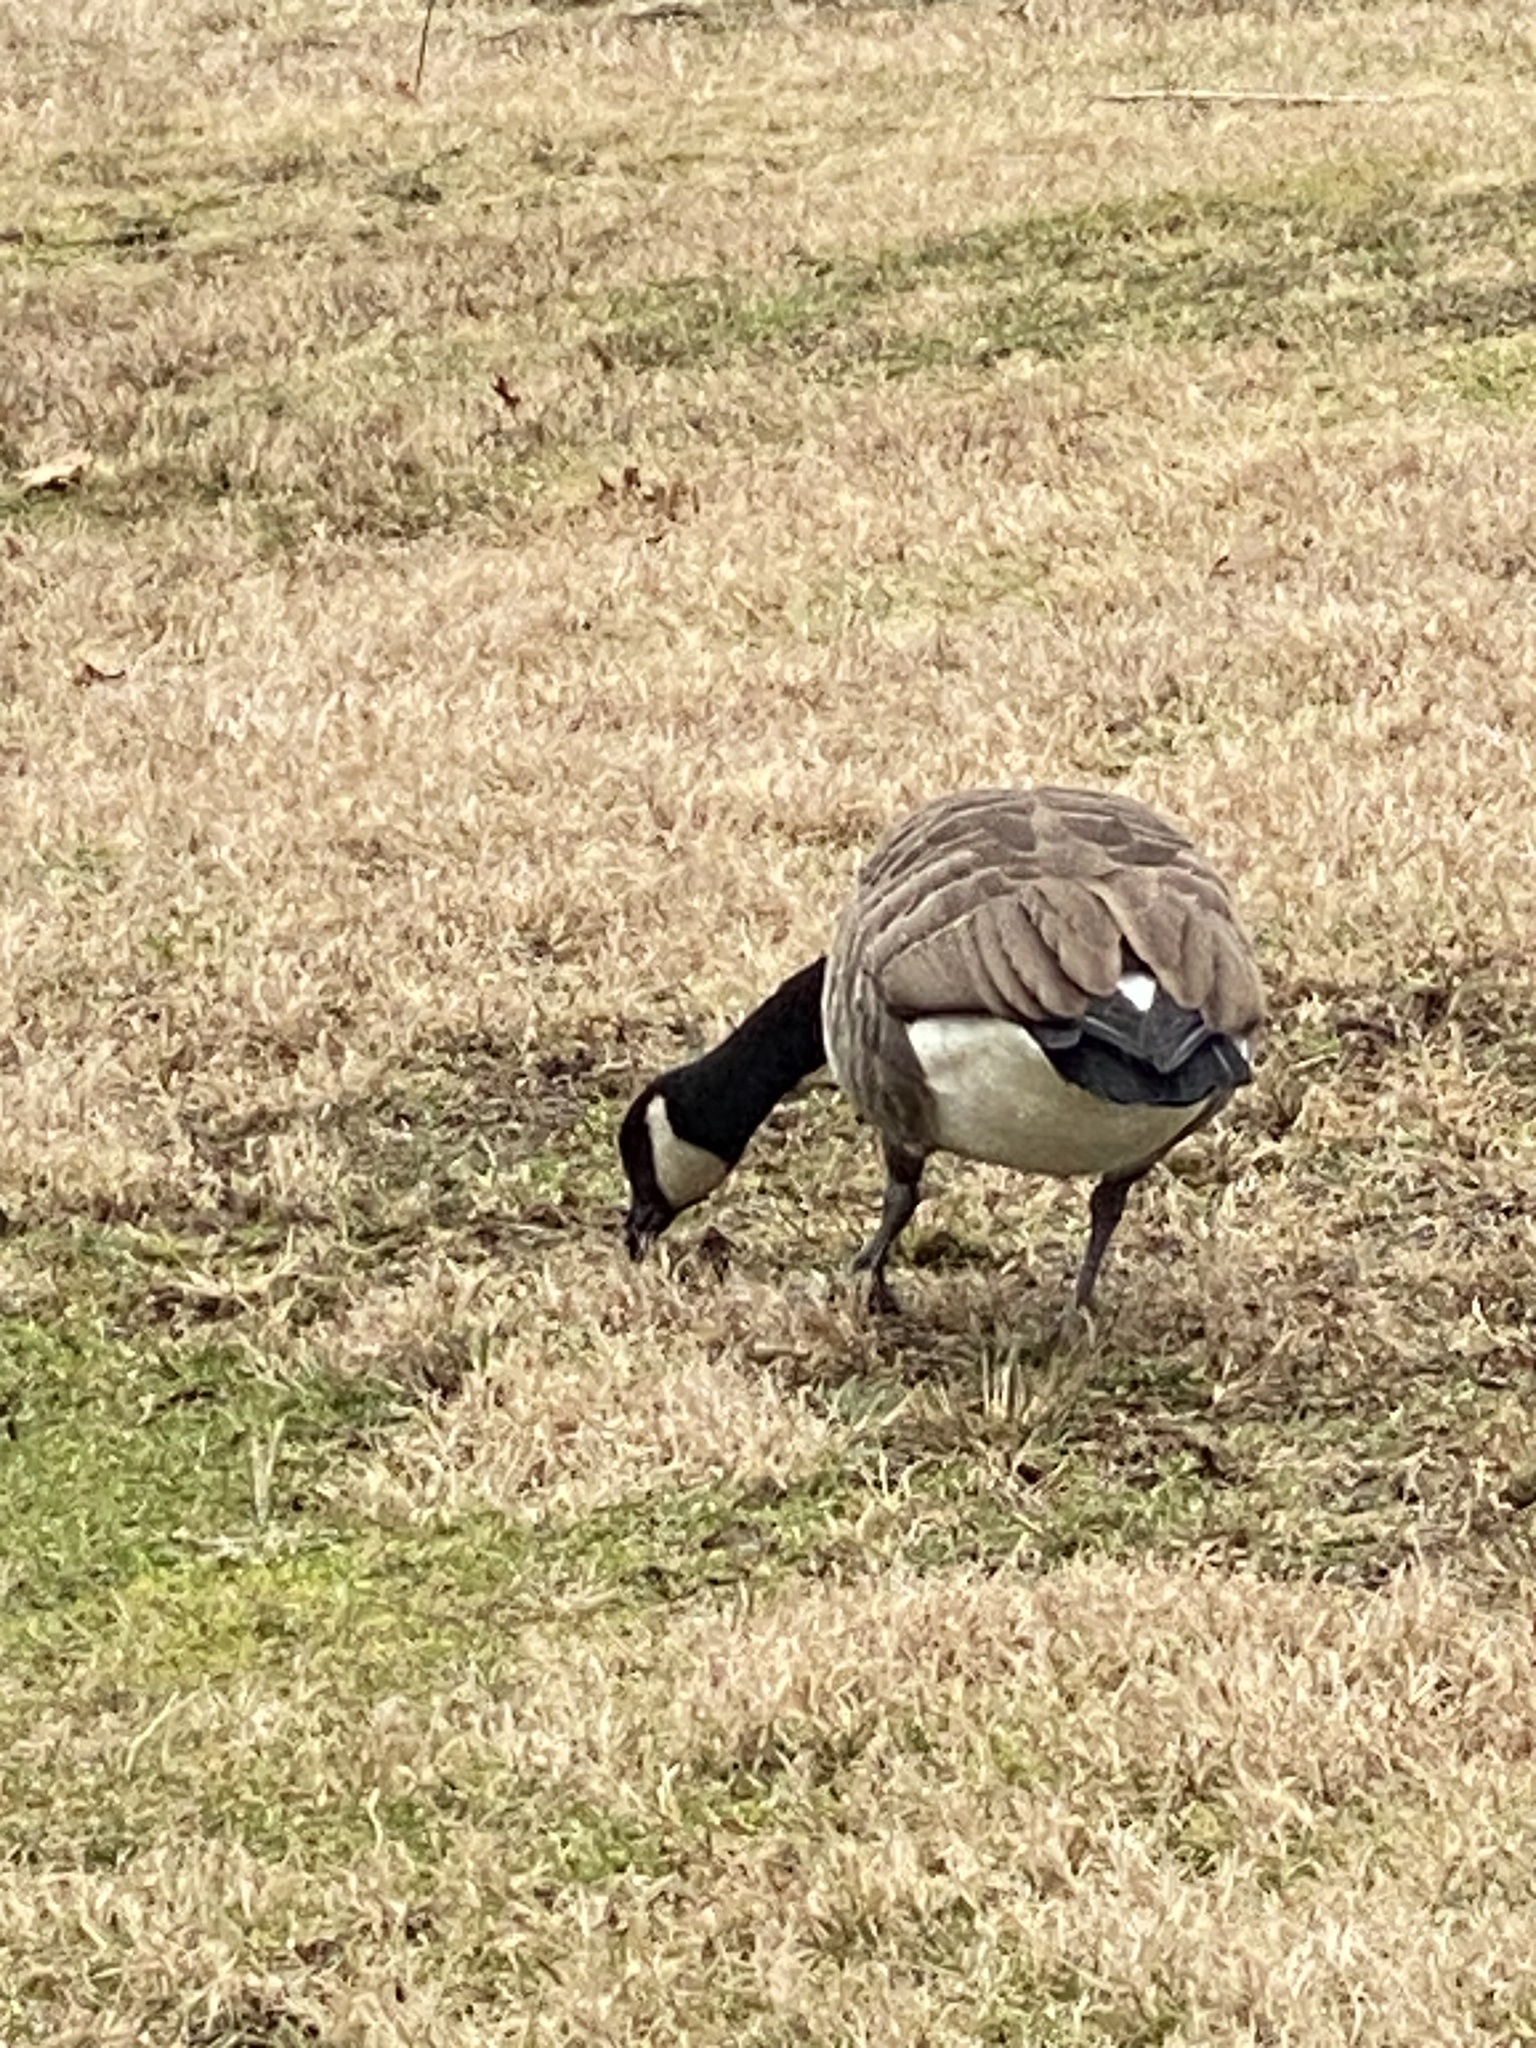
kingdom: Animalia
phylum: Chordata
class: Aves
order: Anseriformes
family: Anatidae
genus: Branta
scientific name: Branta canadensis
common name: Canada goose
